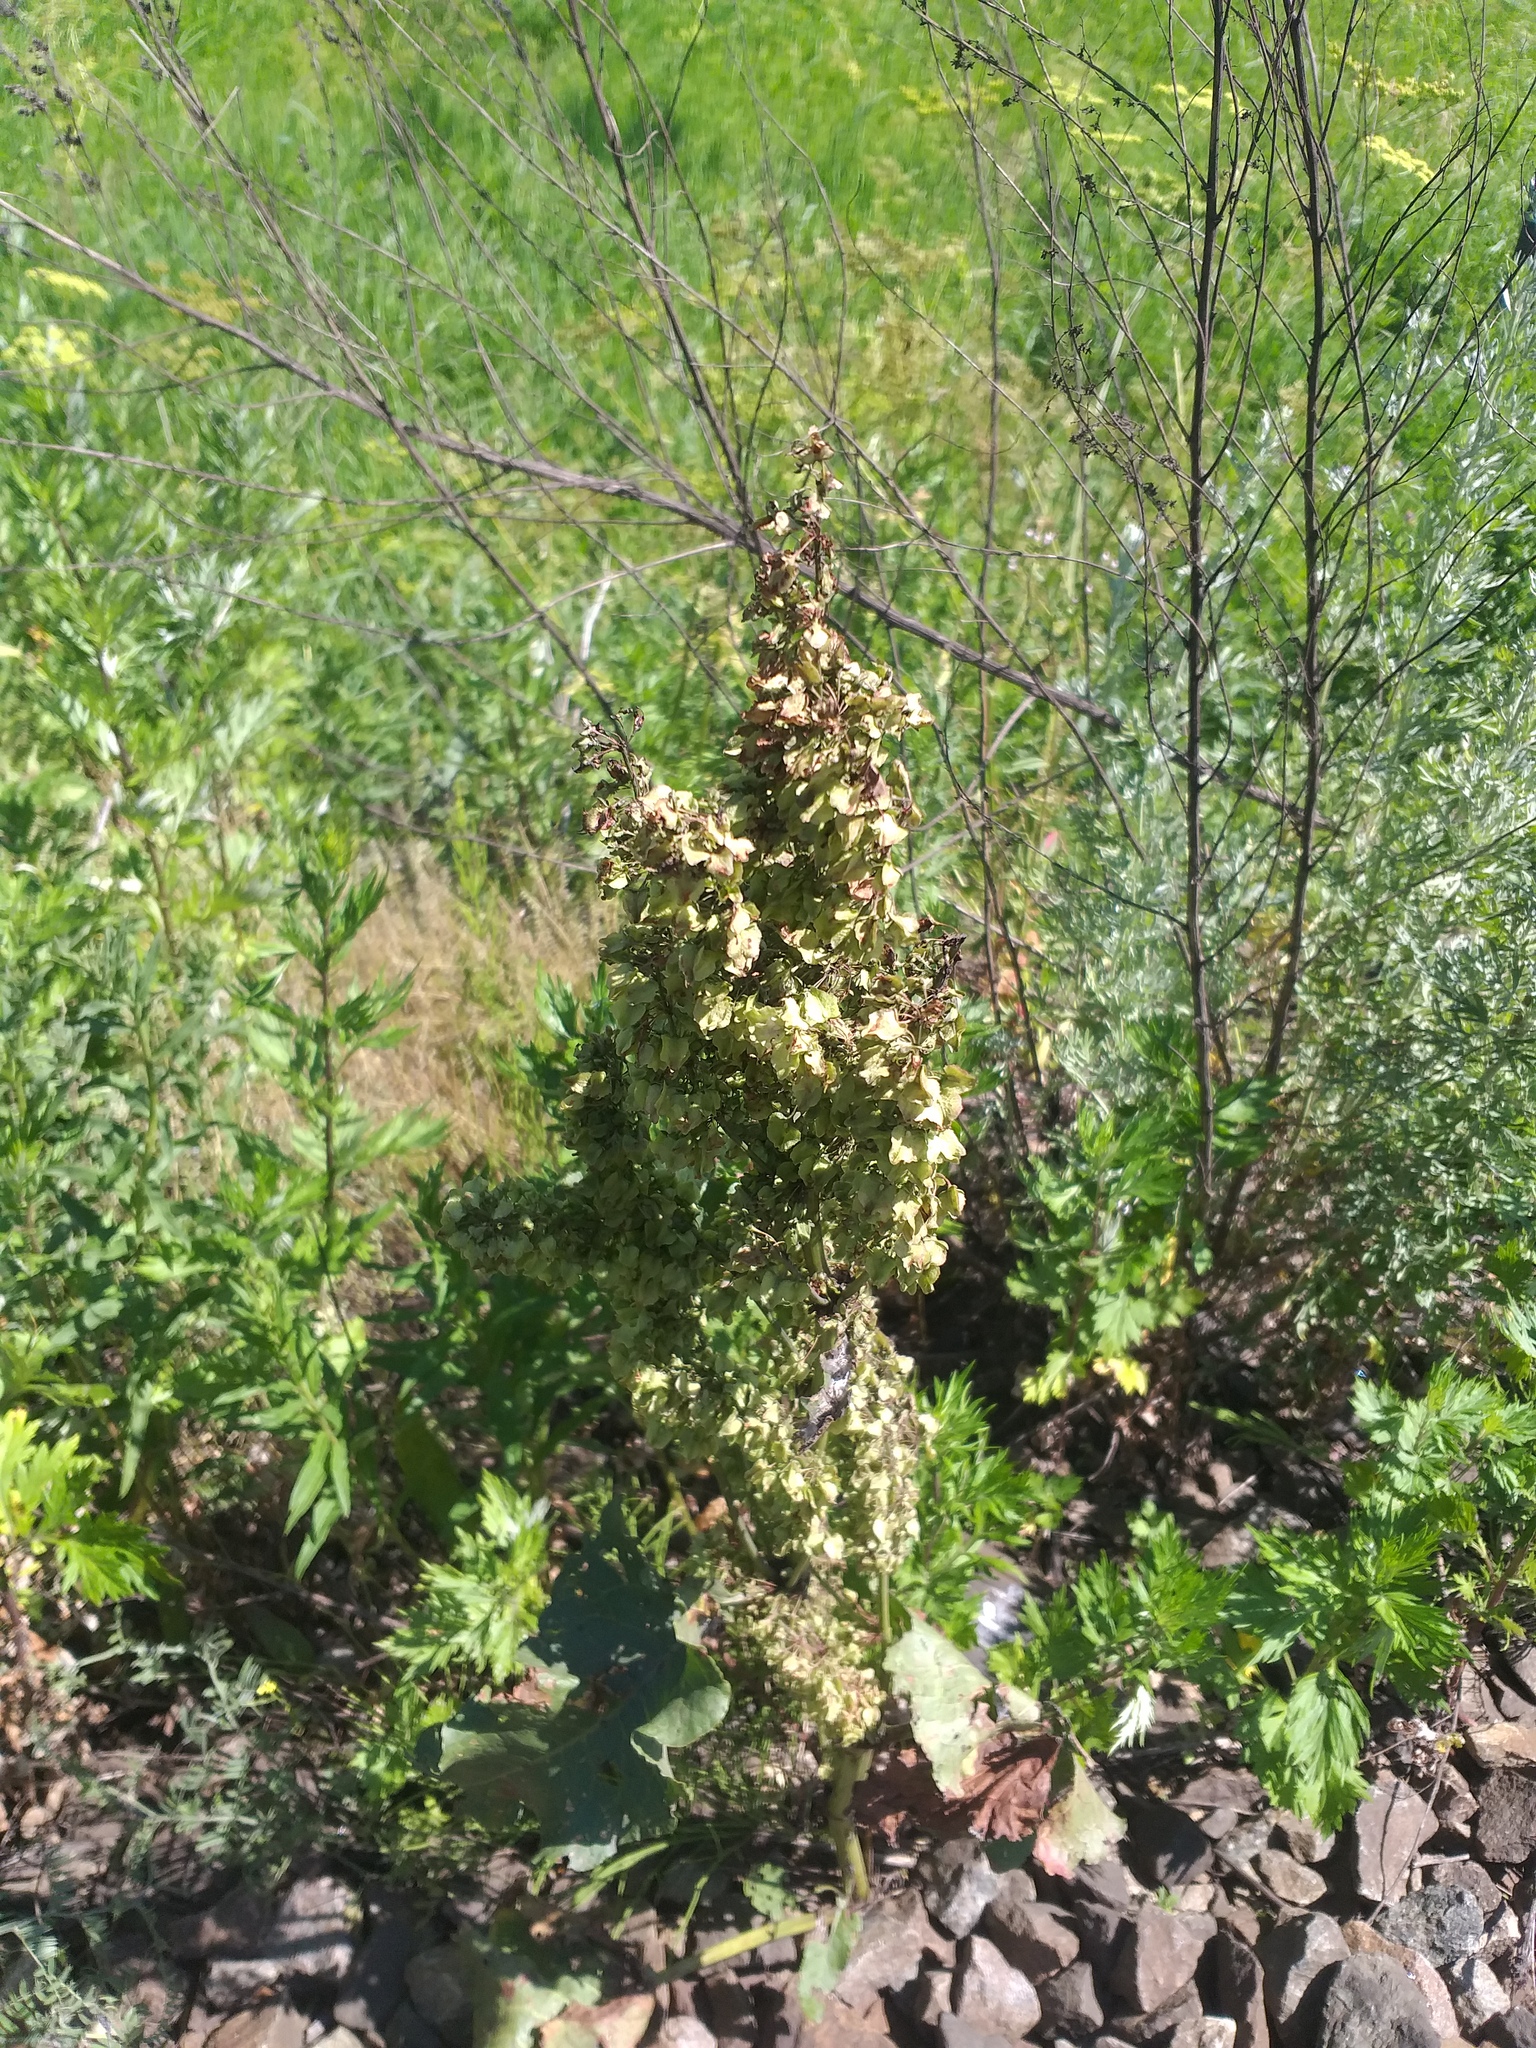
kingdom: Plantae
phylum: Tracheophyta
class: Magnoliopsida
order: Caryophyllales
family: Polygonaceae
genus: Rumex
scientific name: Rumex confertus
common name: Russian dock
